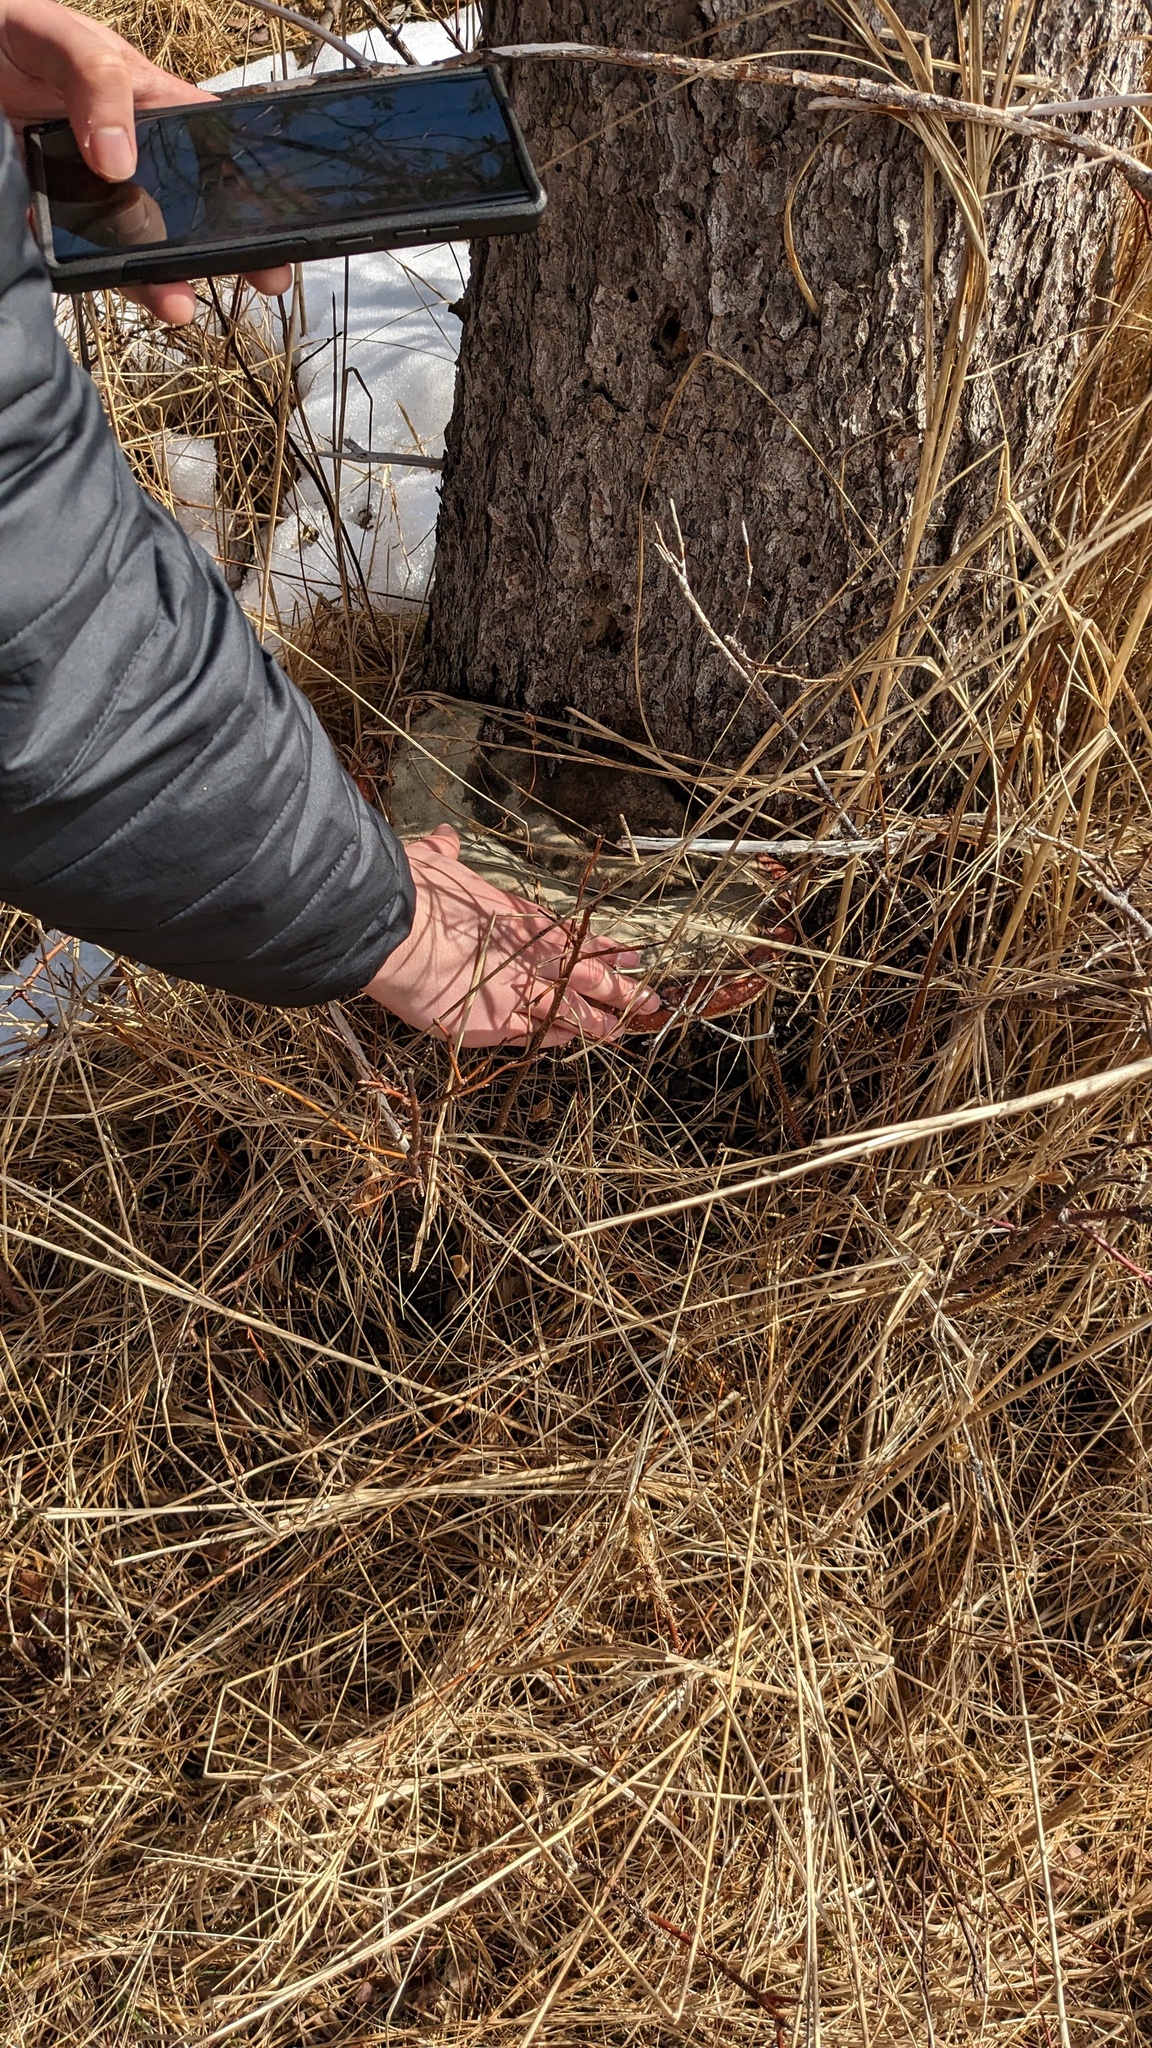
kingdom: Fungi
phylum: Basidiomycota
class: Agaricomycetes
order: Polyporales
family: Fomitopsidaceae
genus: Fomitopsis
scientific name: Fomitopsis mounceae
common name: Northern red belt
